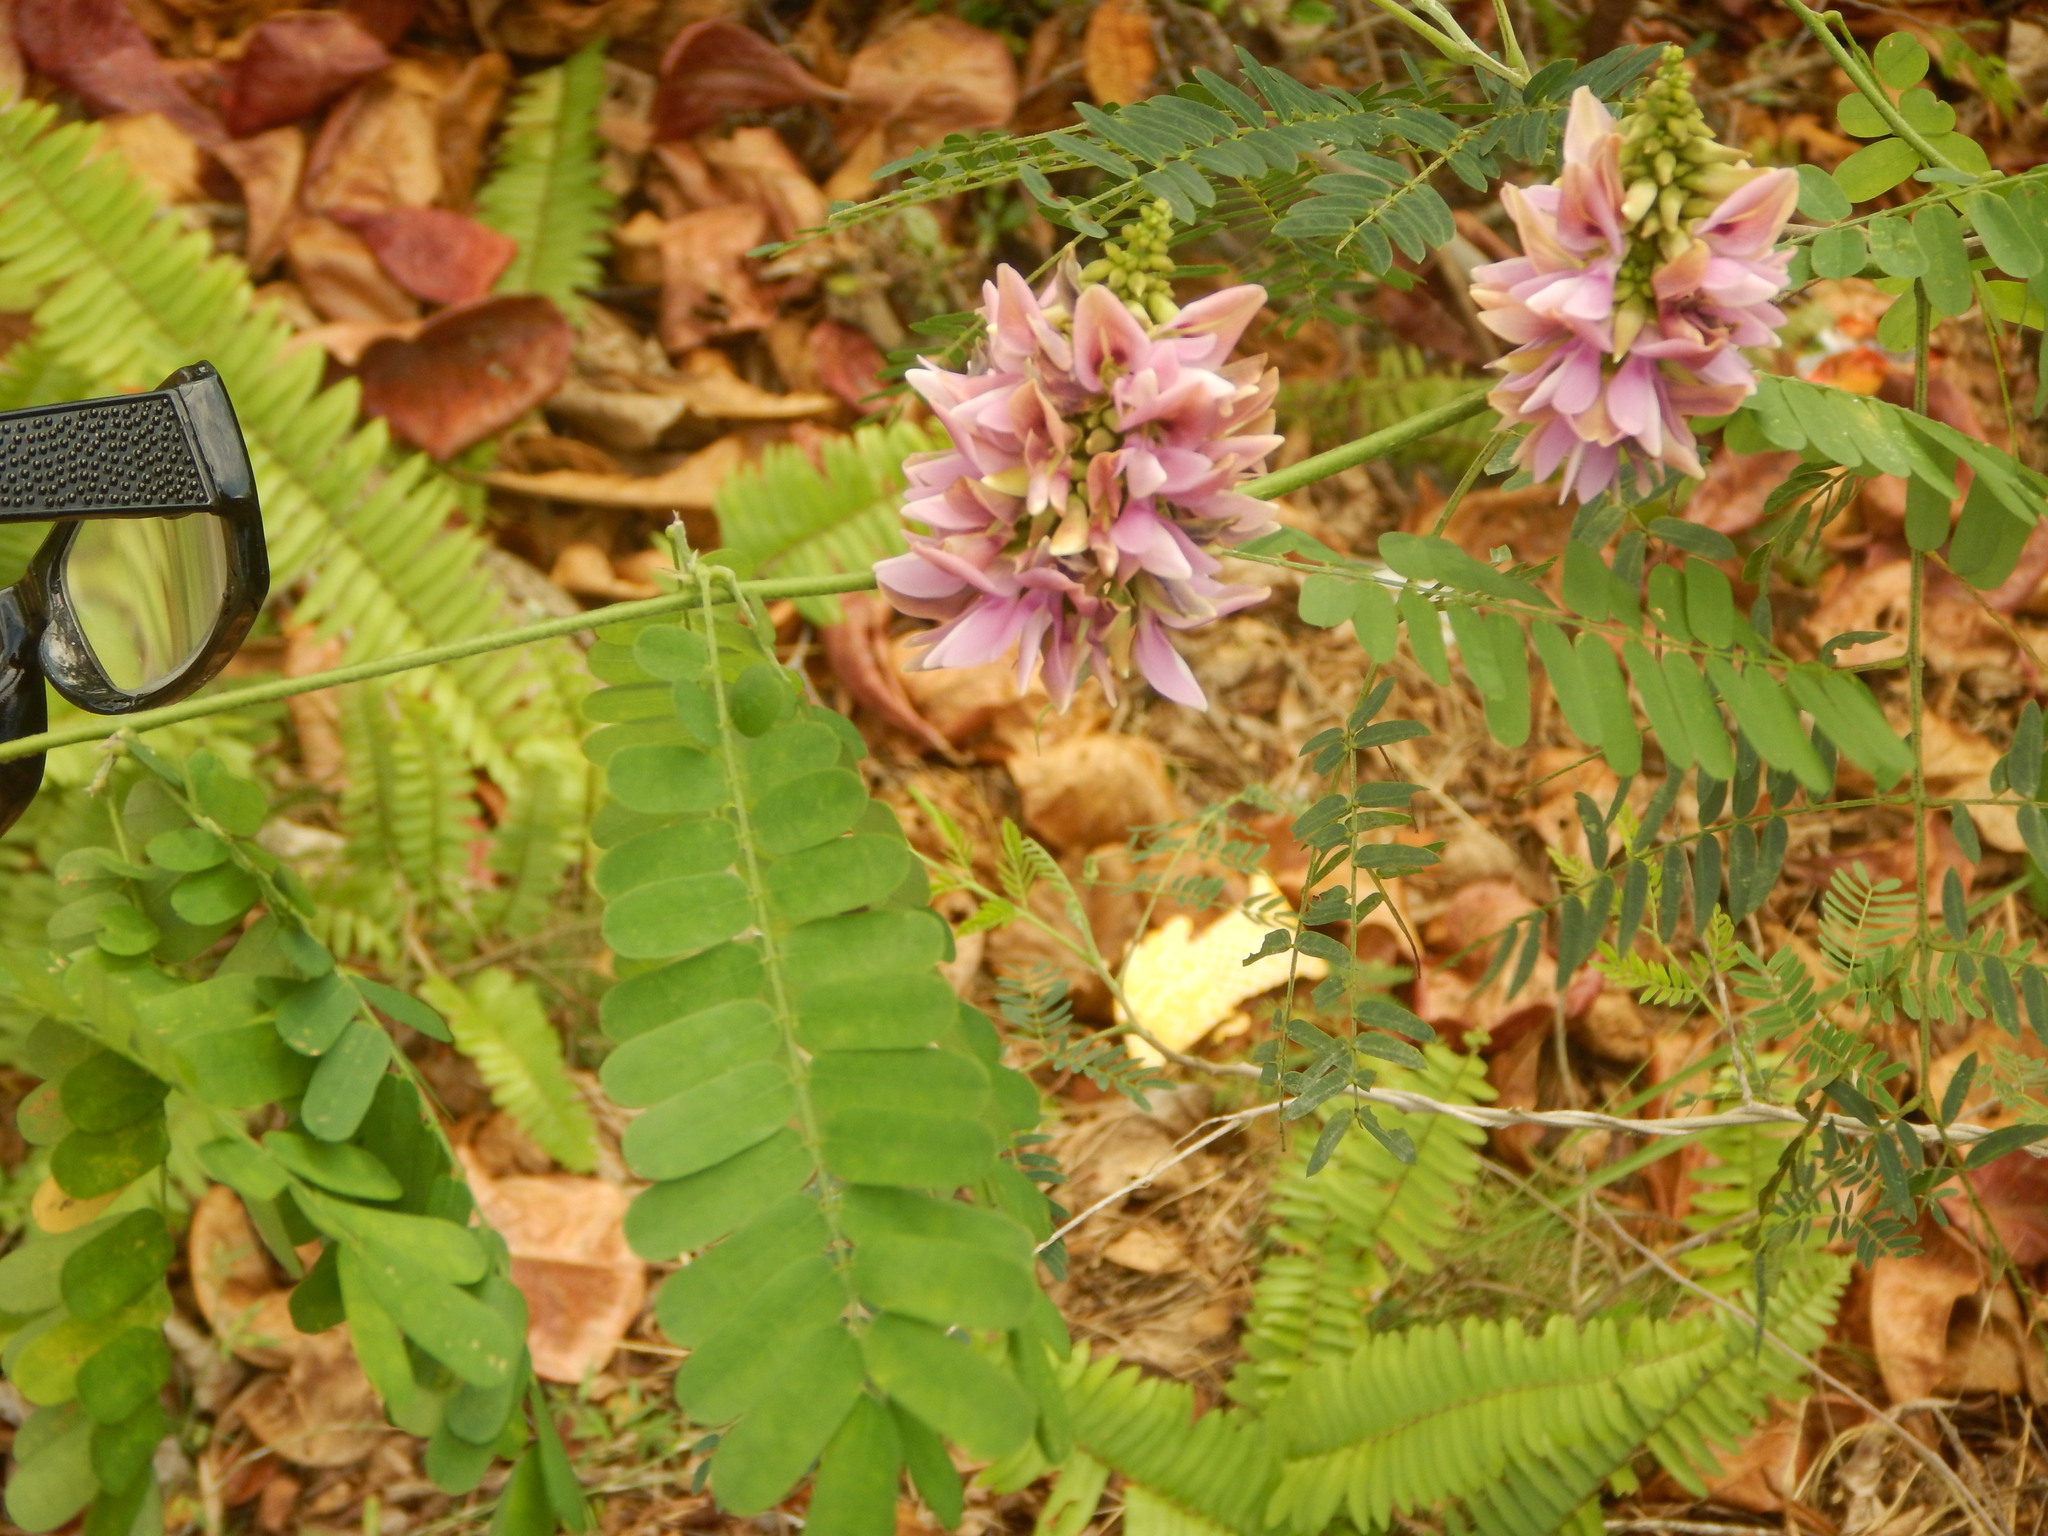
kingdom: Plantae
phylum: Tracheophyta
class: Magnoliopsida
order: Fabales
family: Fabaceae
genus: Abrus
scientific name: Abrus precatorius
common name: Rosarypea
